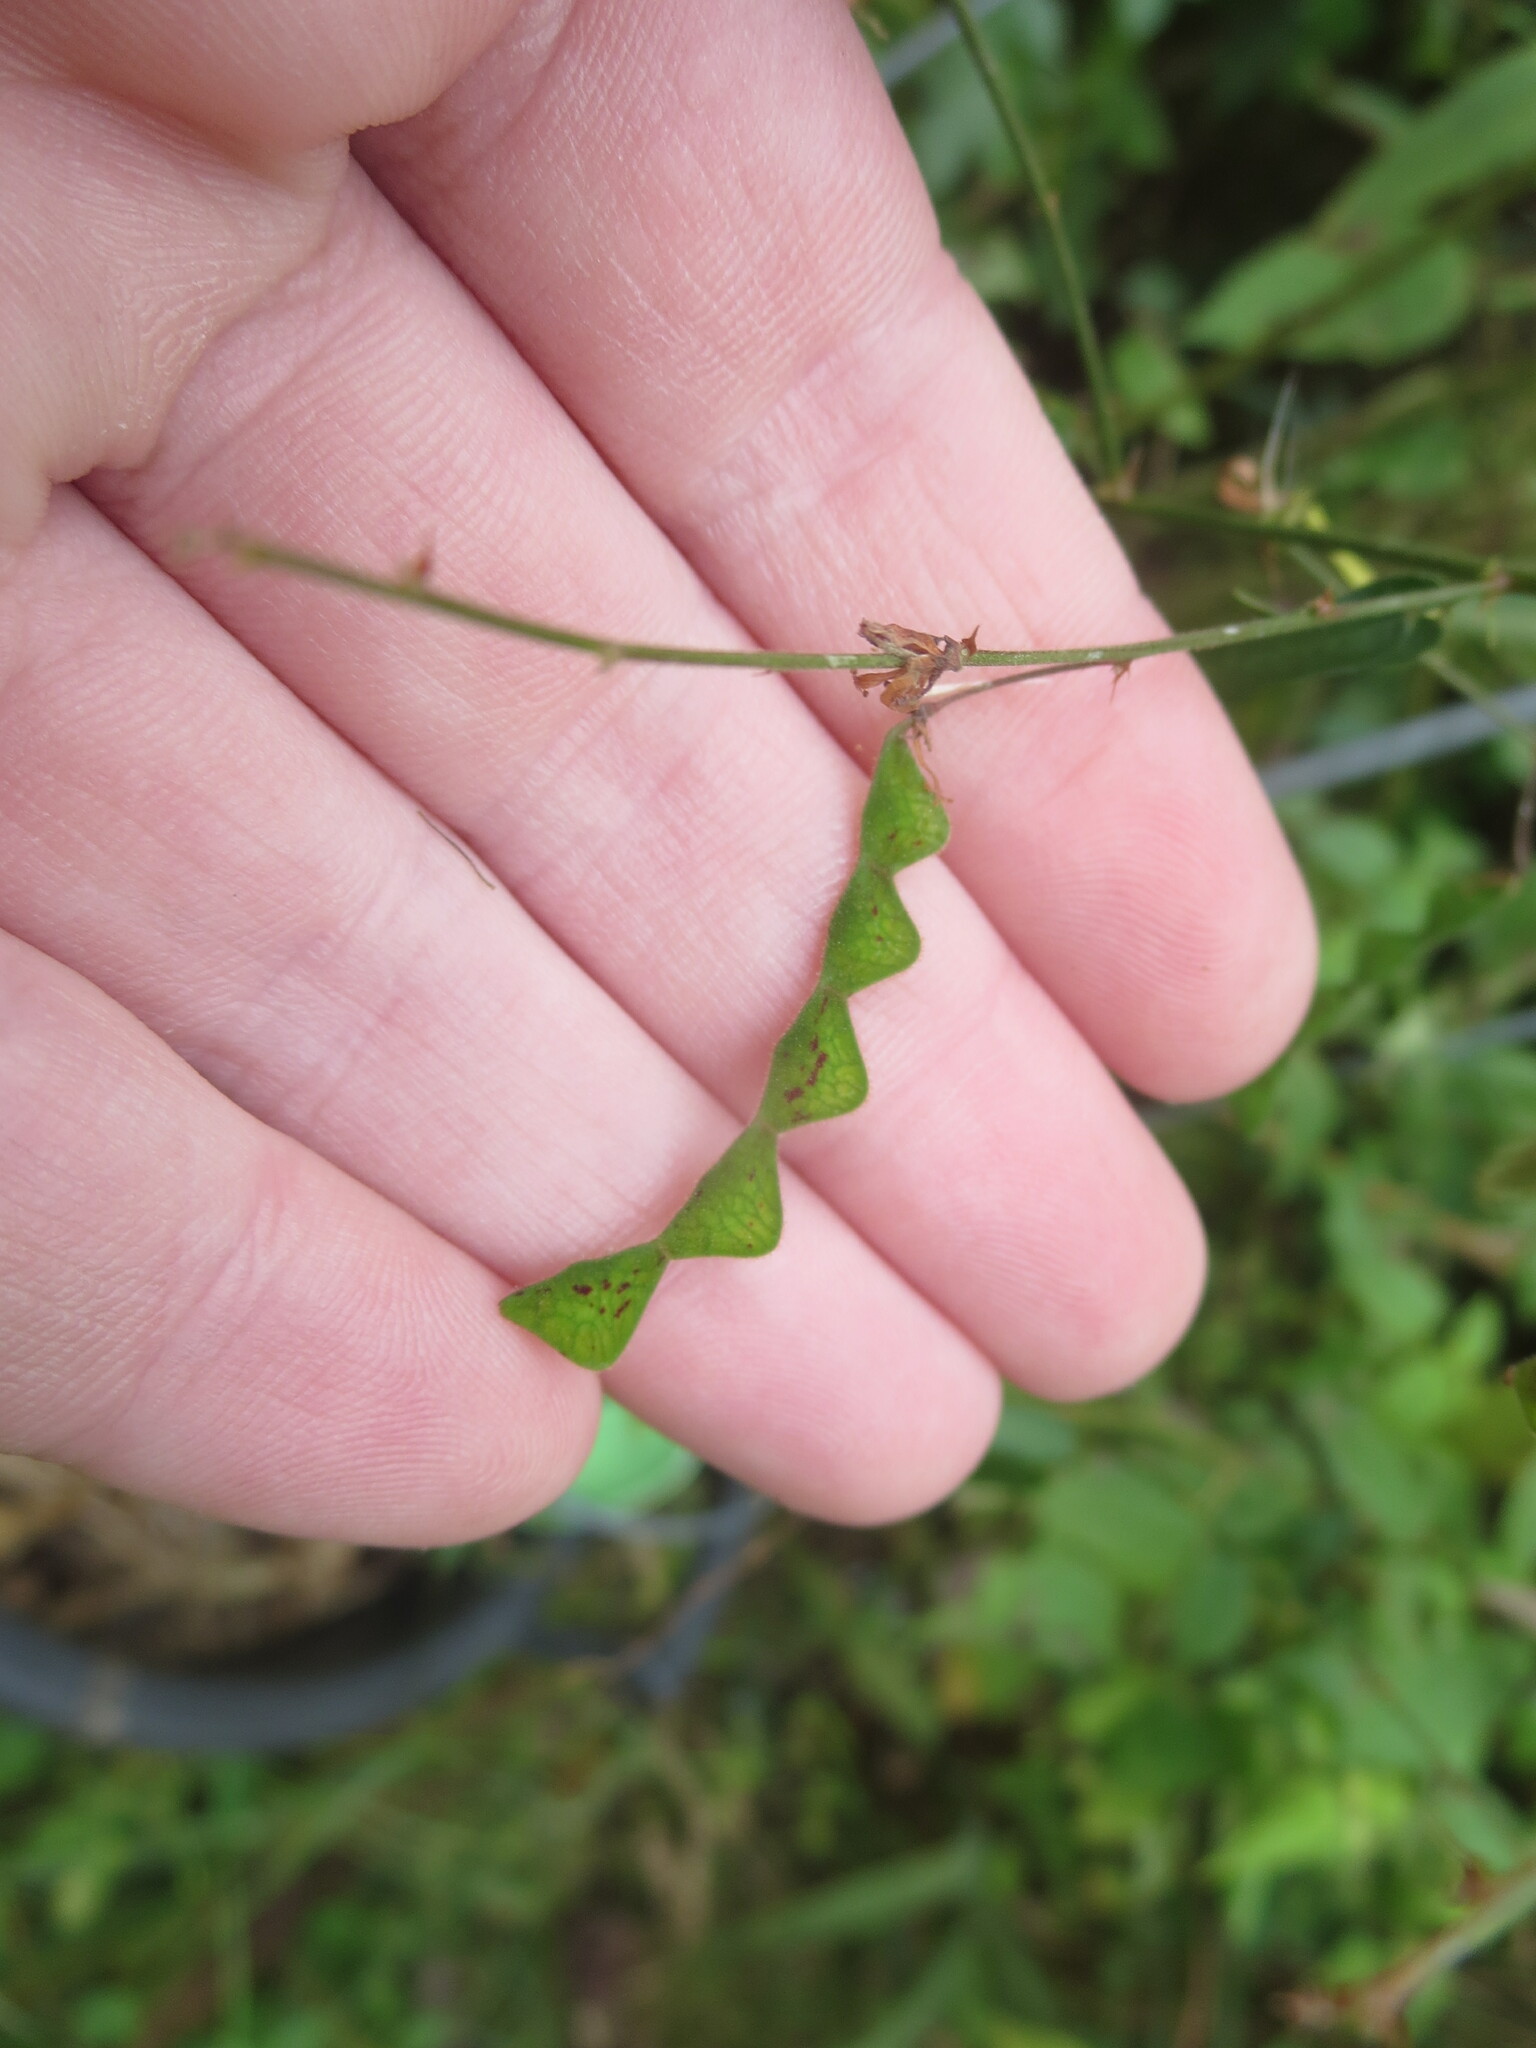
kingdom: Plantae
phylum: Tracheophyta
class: Magnoliopsida
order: Fabales
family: Fabaceae
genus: Desmodium
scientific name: Desmodium paniculatum
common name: Panicled tick-clover
